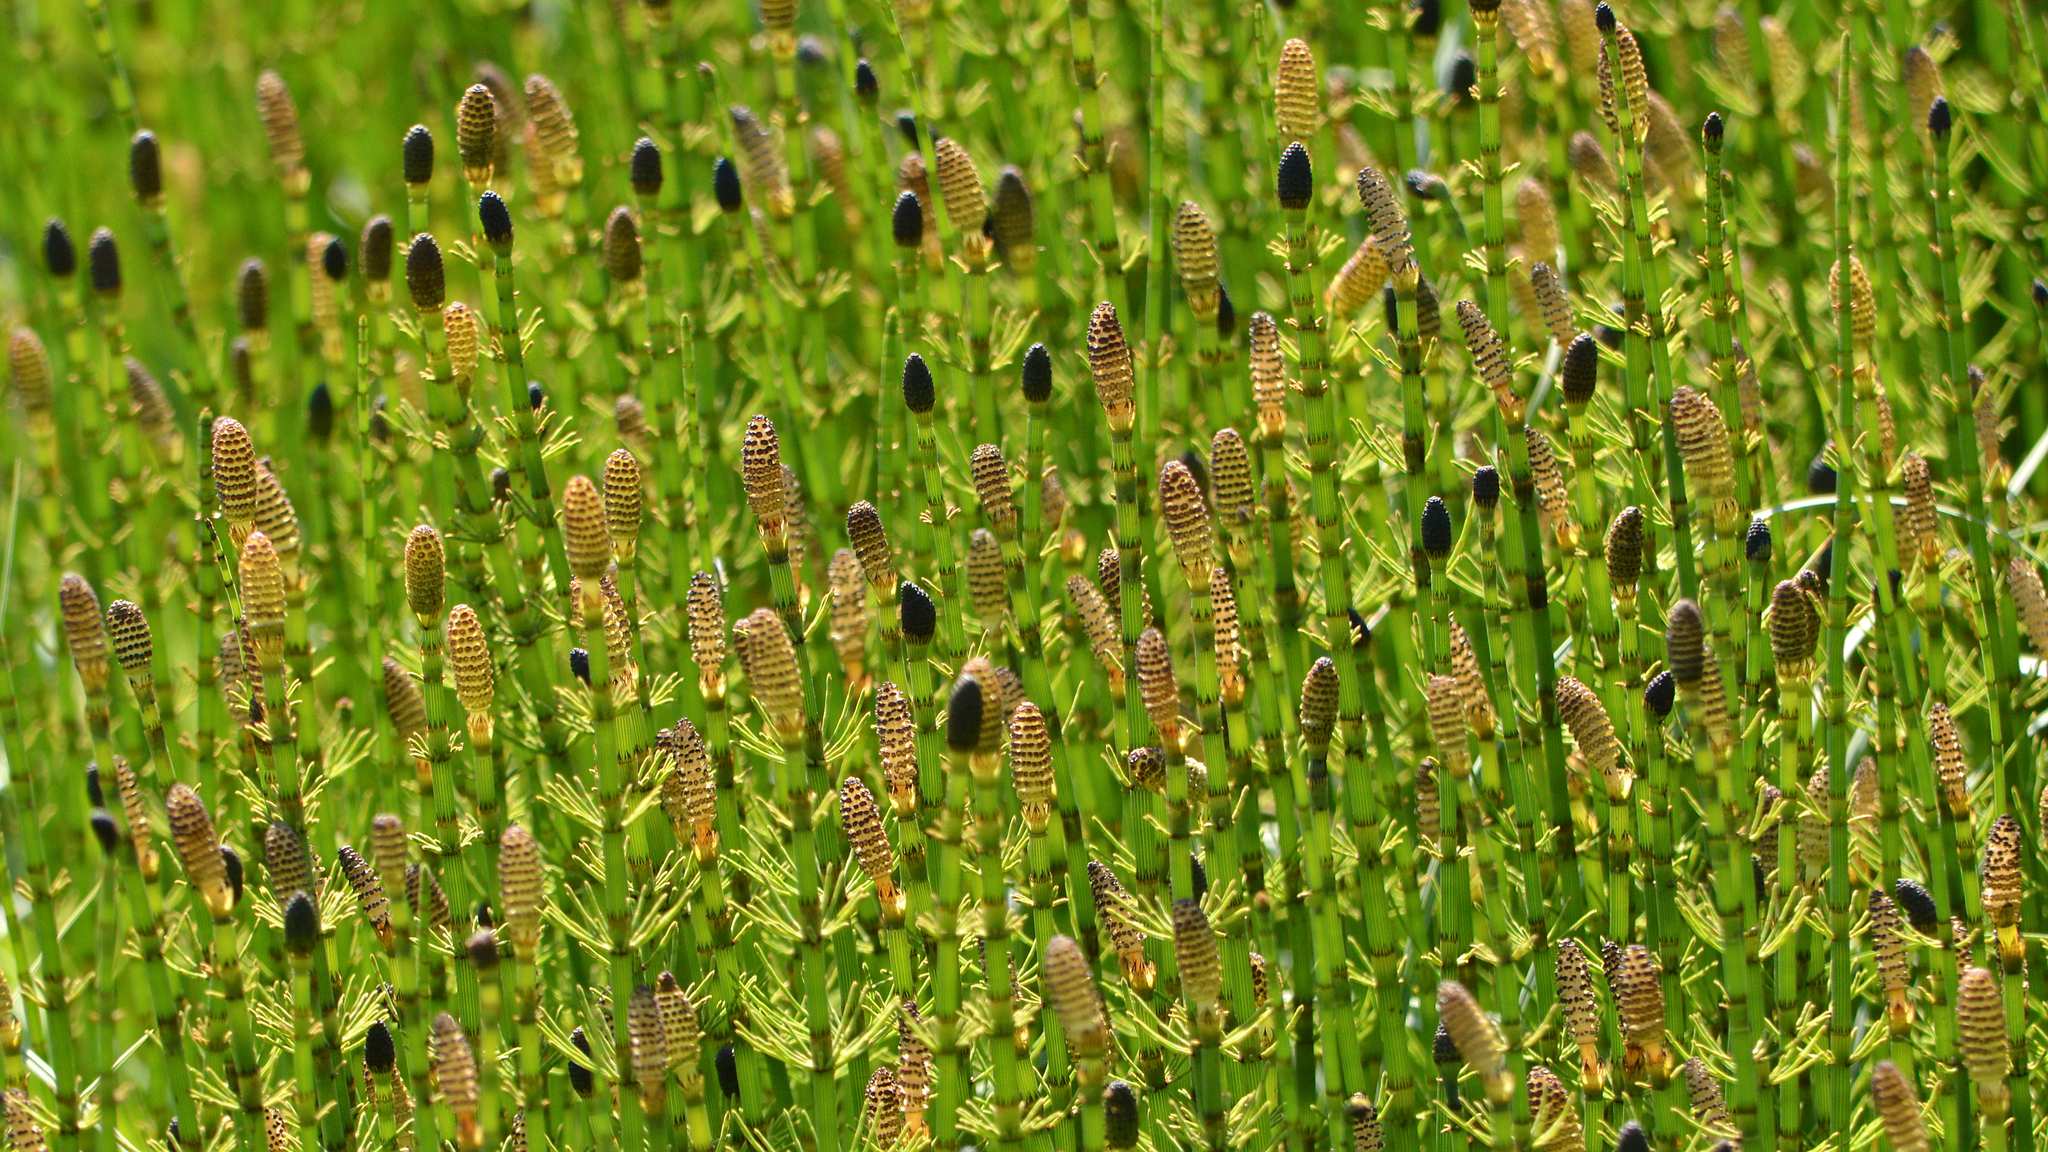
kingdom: Plantae
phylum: Tracheophyta
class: Polypodiopsida
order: Equisetales
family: Equisetaceae
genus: Equisetum
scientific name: Equisetum fluviatile
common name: Water horsetail
